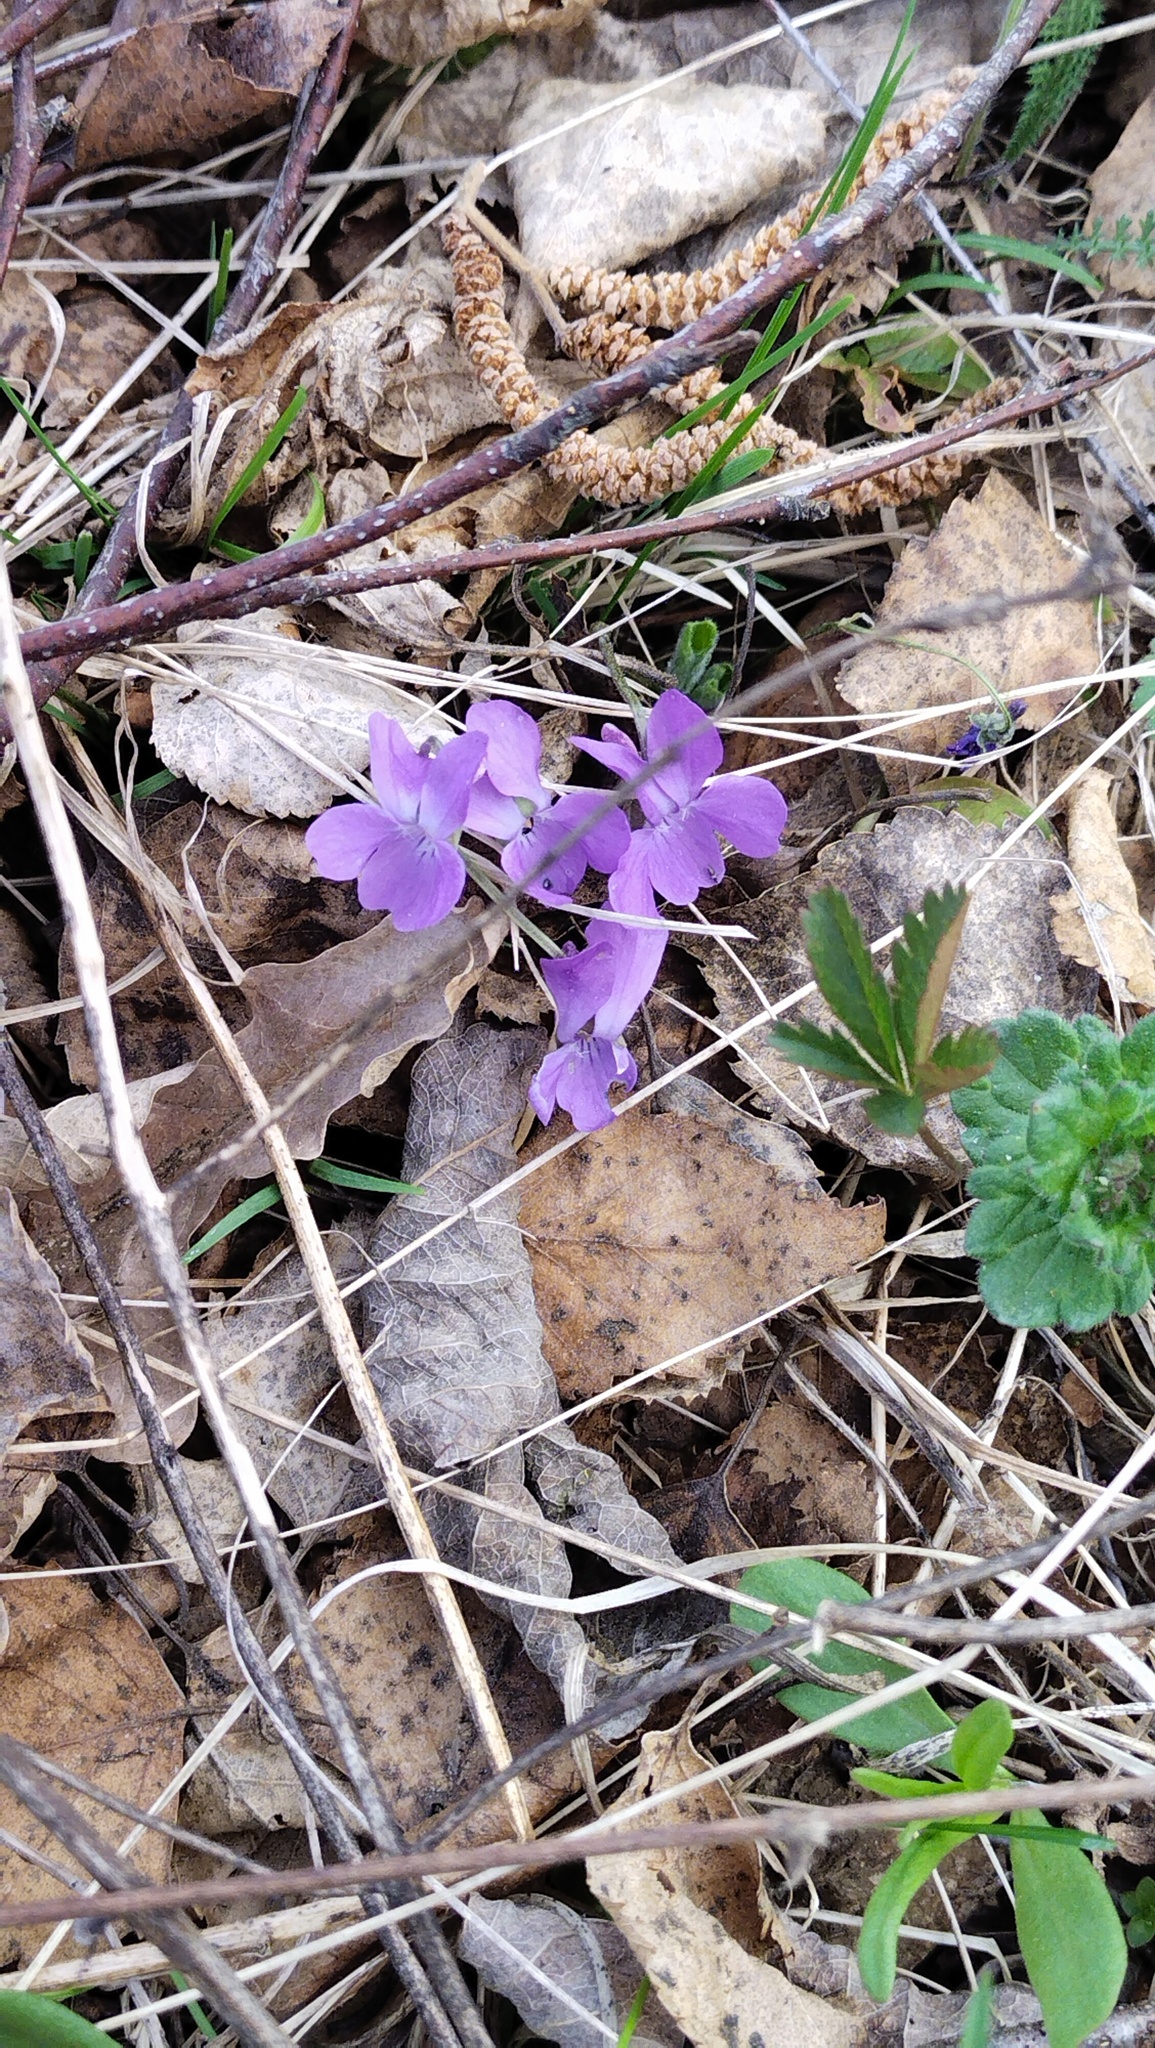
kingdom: Plantae
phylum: Tracheophyta
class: Magnoliopsida
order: Malpighiales
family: Violaceae
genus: Viola
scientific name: Viola hirta
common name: Hairy violet
